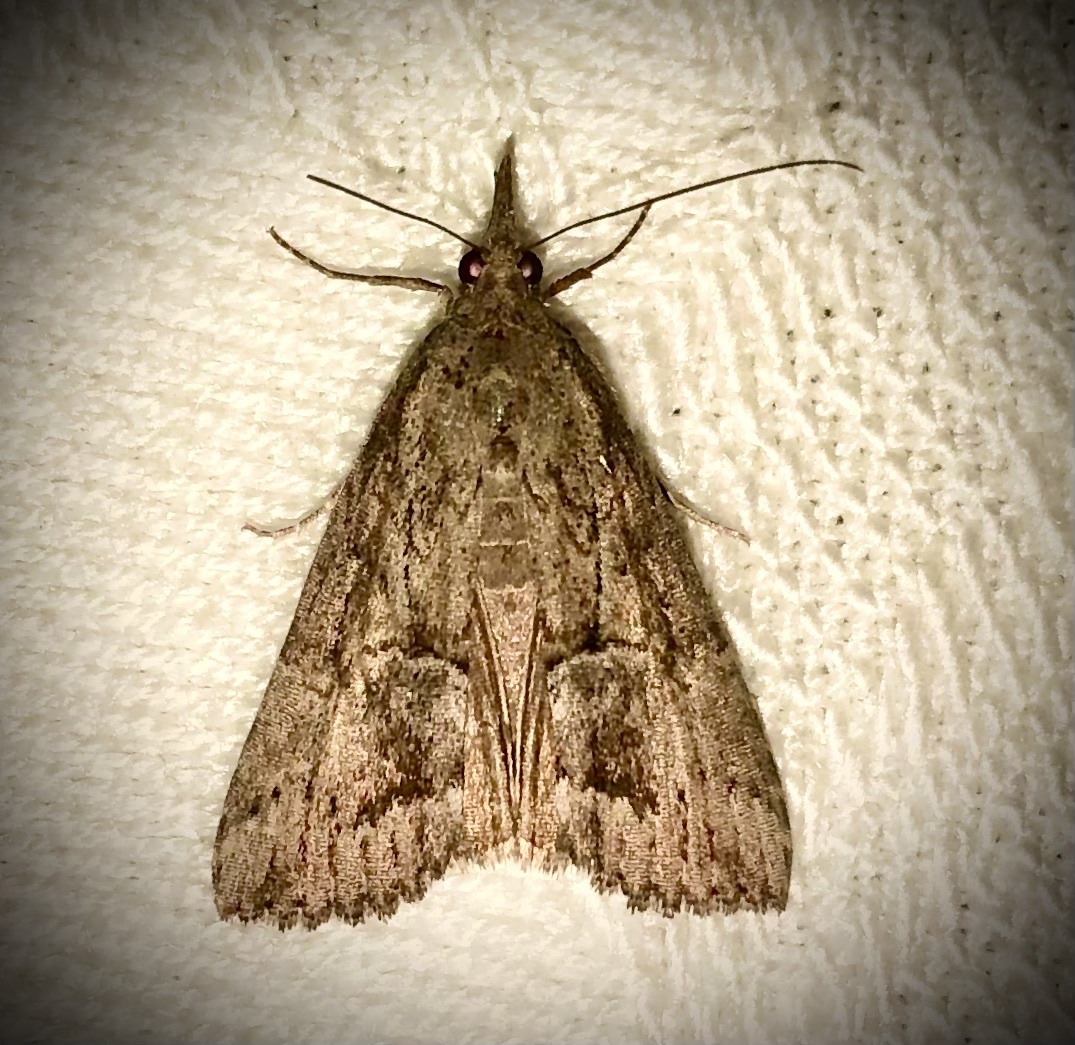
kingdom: Animalia
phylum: Arthropoda
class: Insecta
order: Lepidoptera
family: Erebidae
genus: Hypena
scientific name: Hypena scabra
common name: Green cloverworm
